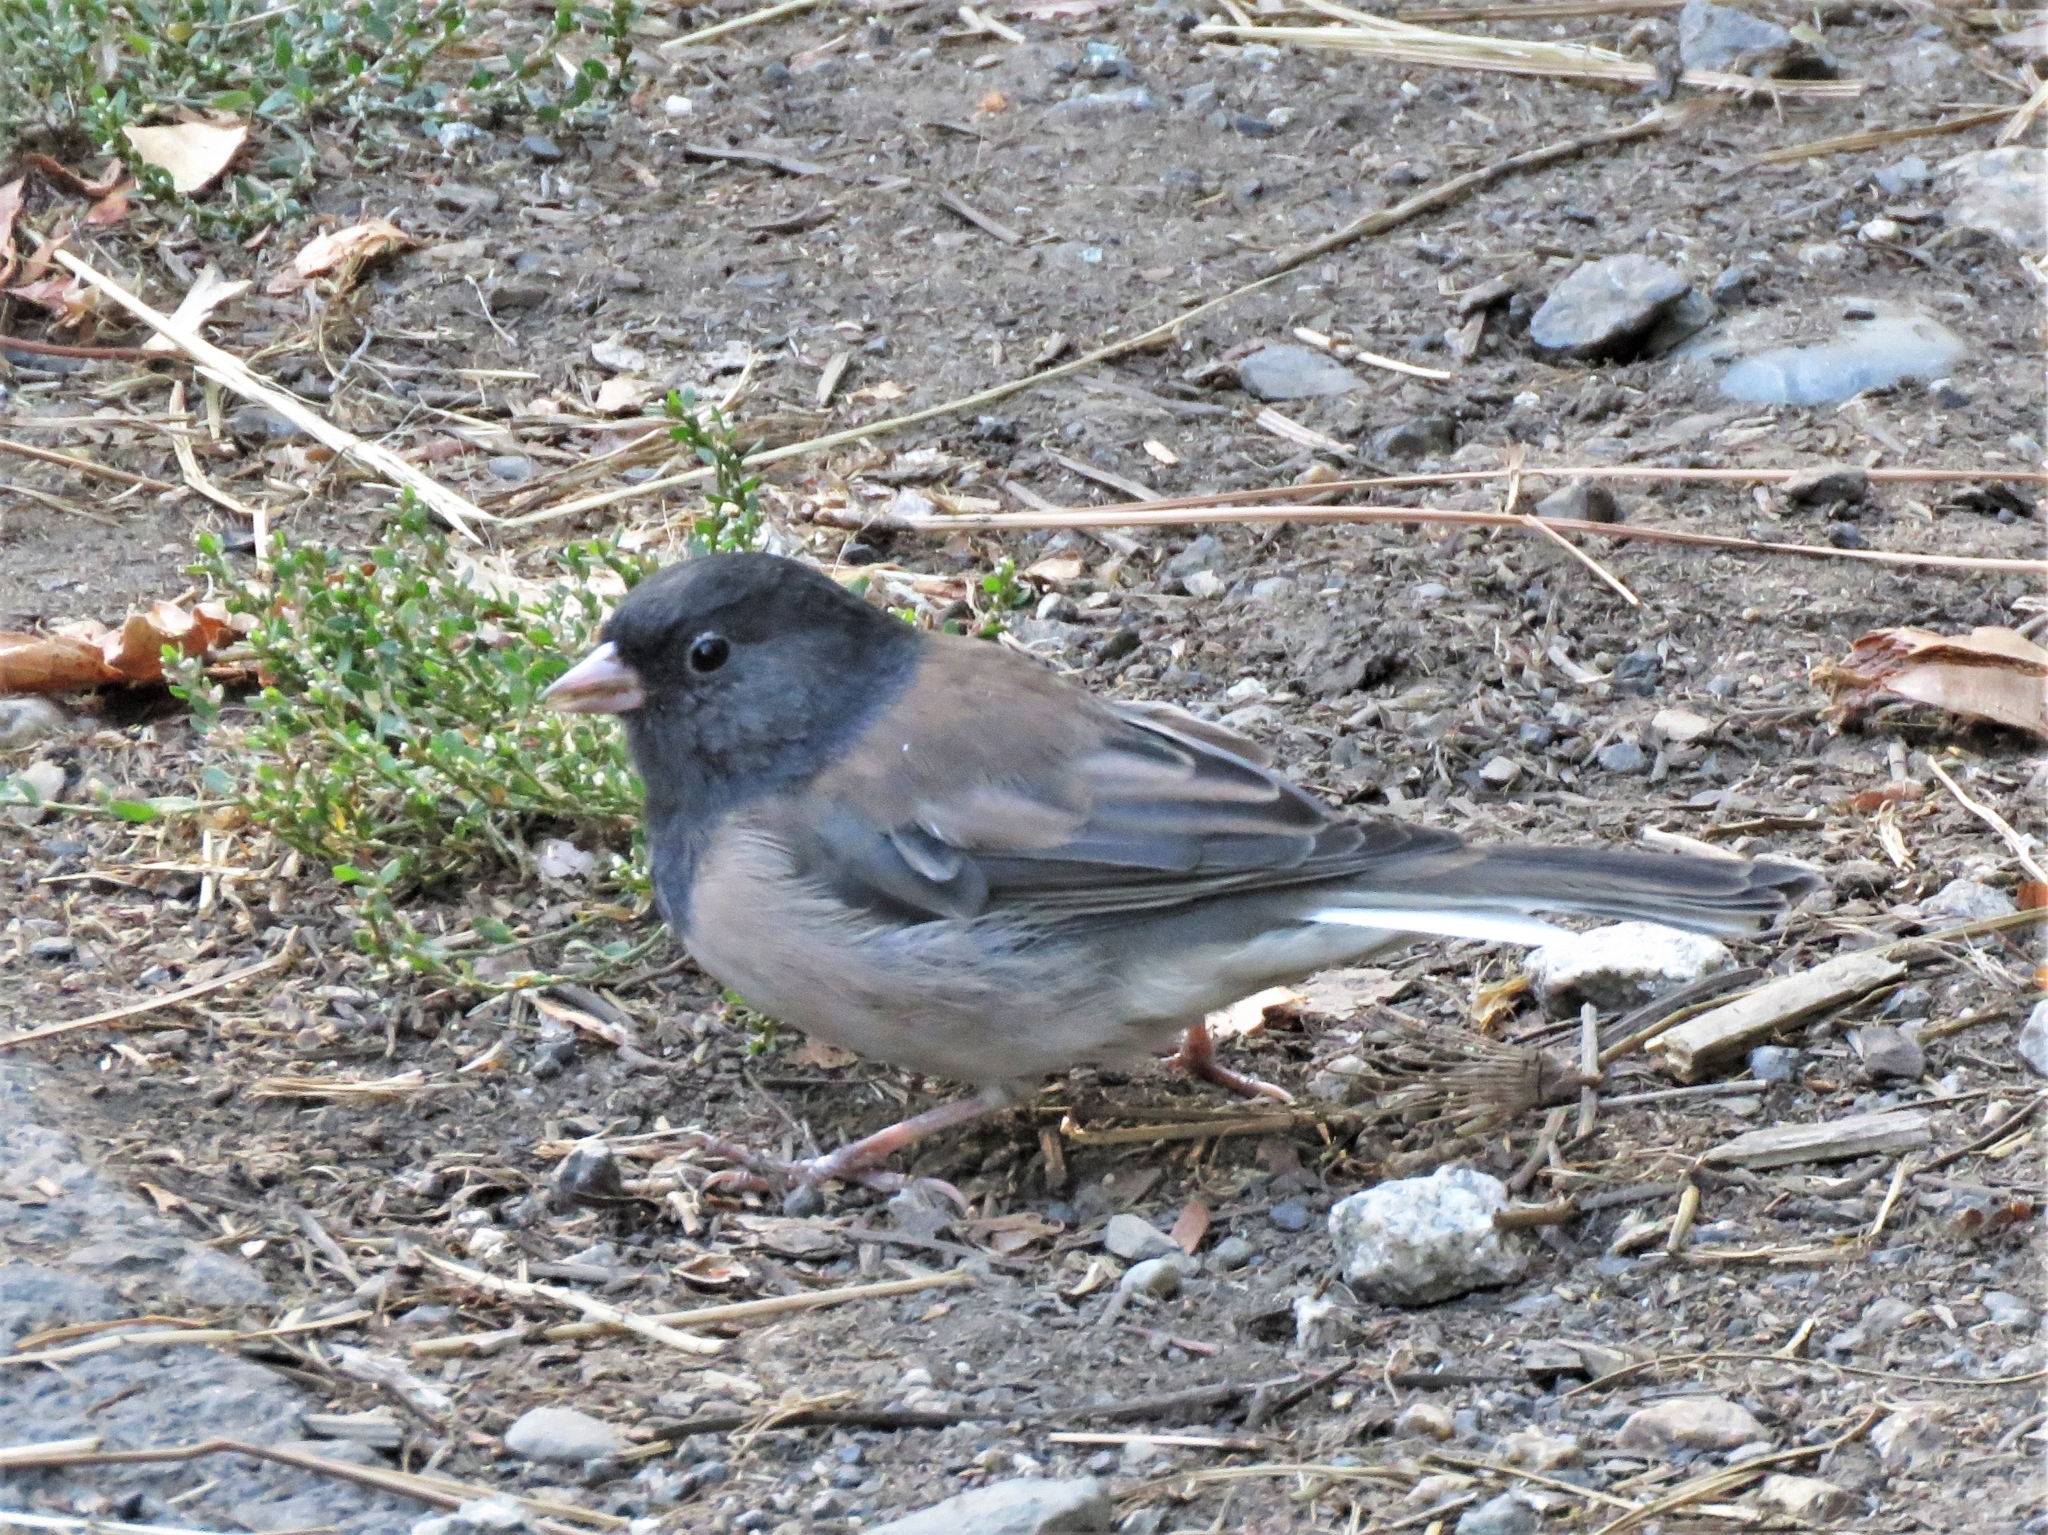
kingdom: Animalia
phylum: Chordata
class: Aves
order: Passeriformes
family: Passerellidae
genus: Junco
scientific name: Junco hyemalis
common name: Dark-eyed junco
